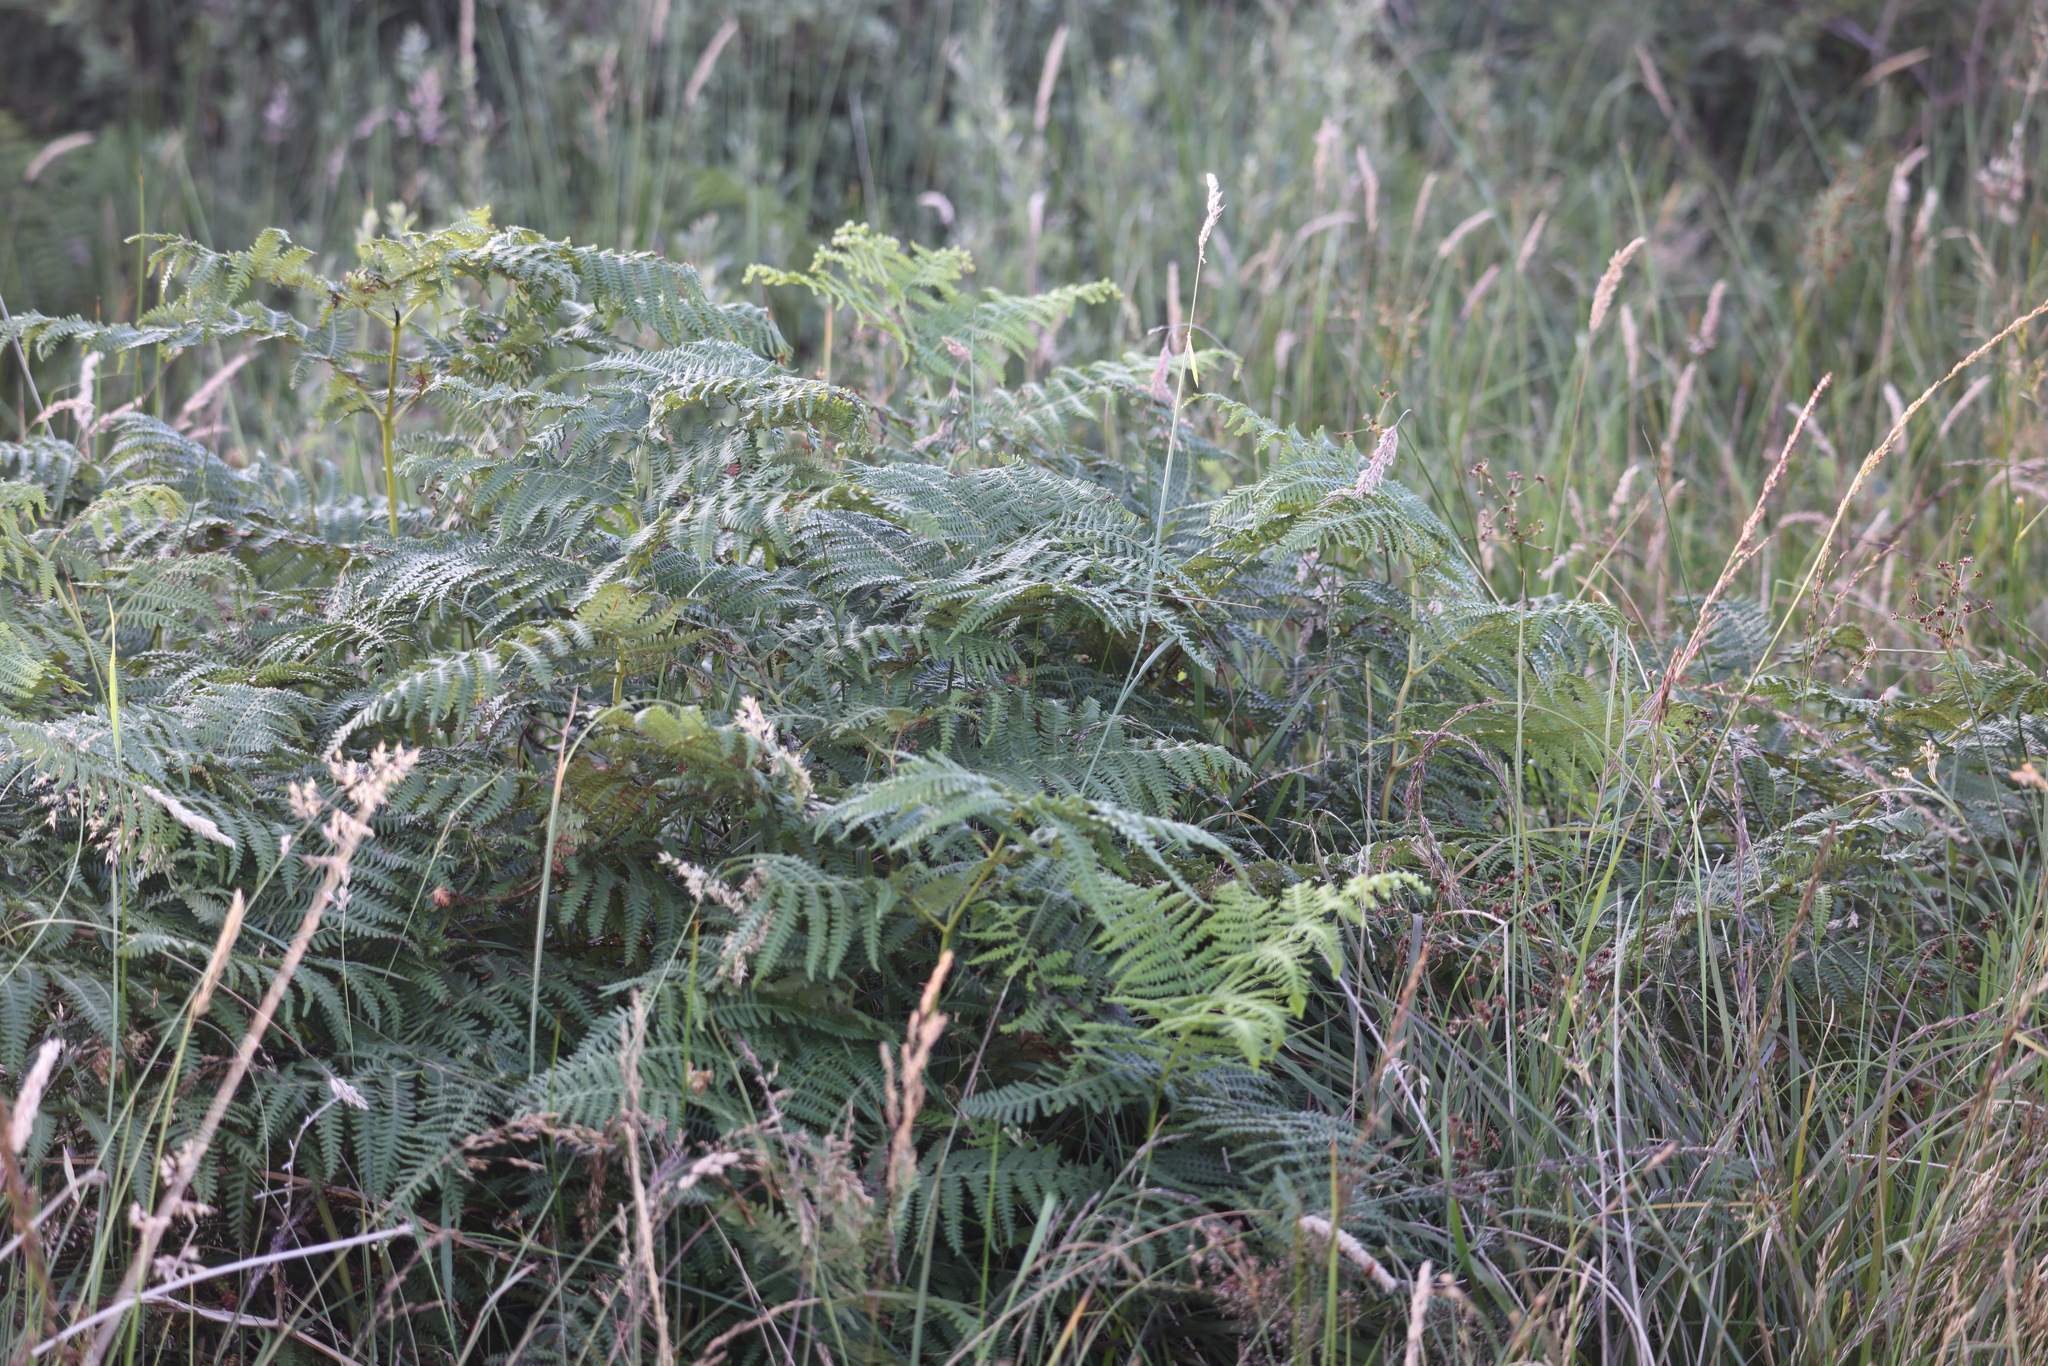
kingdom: Plantae
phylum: Tracheophyta
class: Polypodiopsida
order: Polypodiales
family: Dennstaedtiaceae
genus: Pteridium
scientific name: Pteridium aquilinum
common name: Bracken
